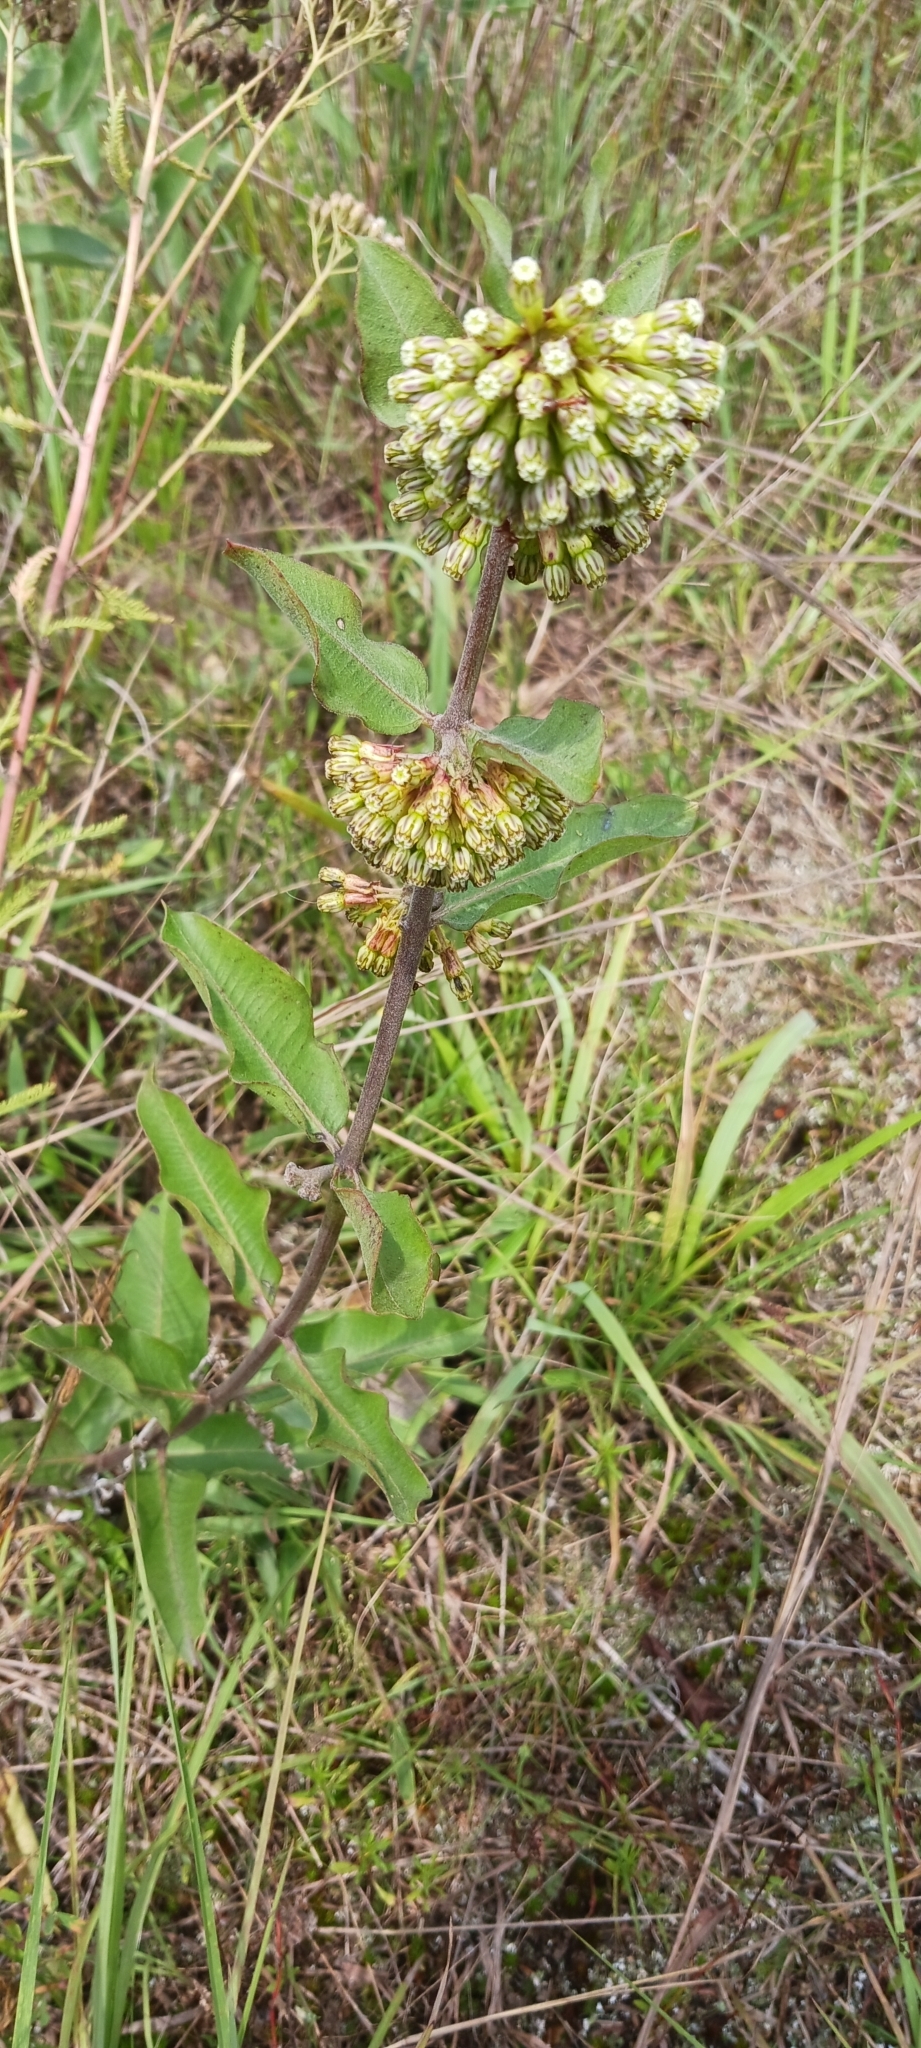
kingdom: Plantae
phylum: Tracheophyta
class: Magnoliopsida
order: Gentianales
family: Apocynaceae
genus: Asclepias
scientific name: Asclepias viridiflora
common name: Green comet milkweed
